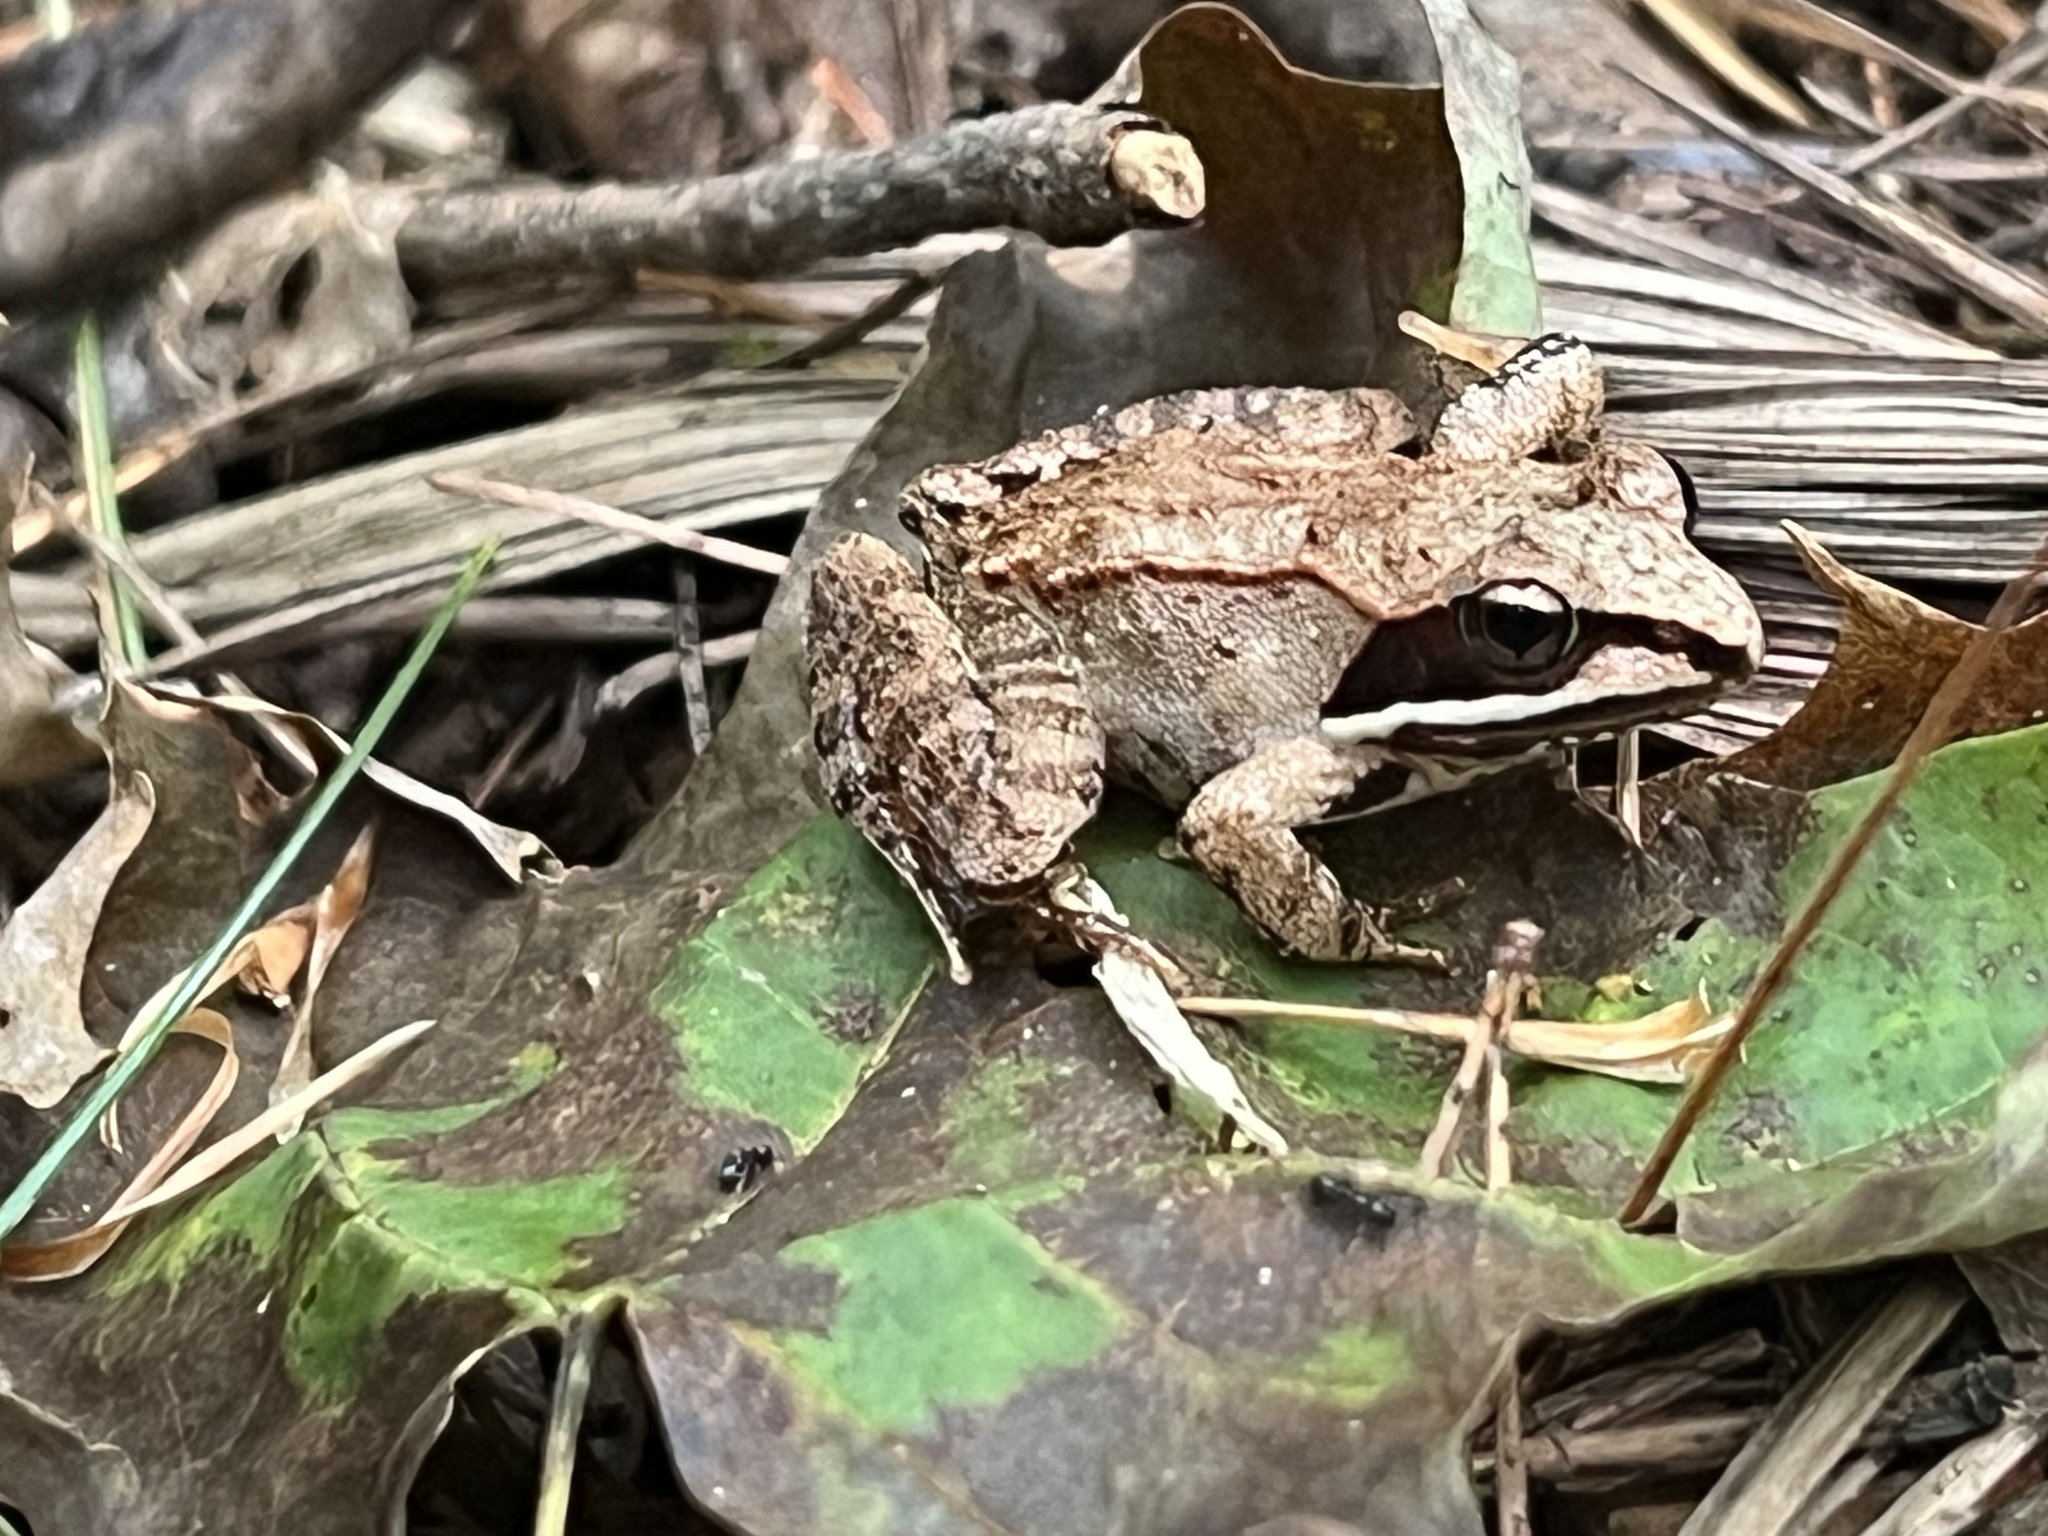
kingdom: Animalia
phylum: Chordata
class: Amphibia
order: Anura
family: Ranidae
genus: Lithobates
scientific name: Lithobates sylvaticus
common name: Wood frog
